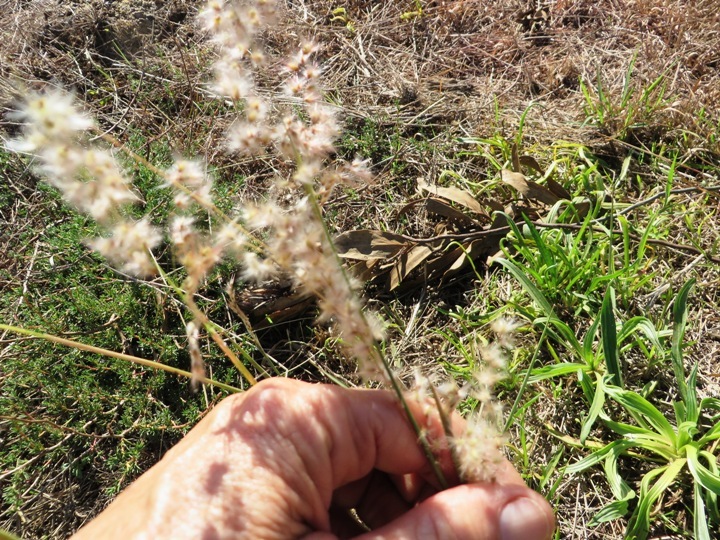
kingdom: Plantae
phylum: Tracheophyta
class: Liliopsida
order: Poales
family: Poaceae
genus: Melinis
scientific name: Melinis repens
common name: Rose natal grass
